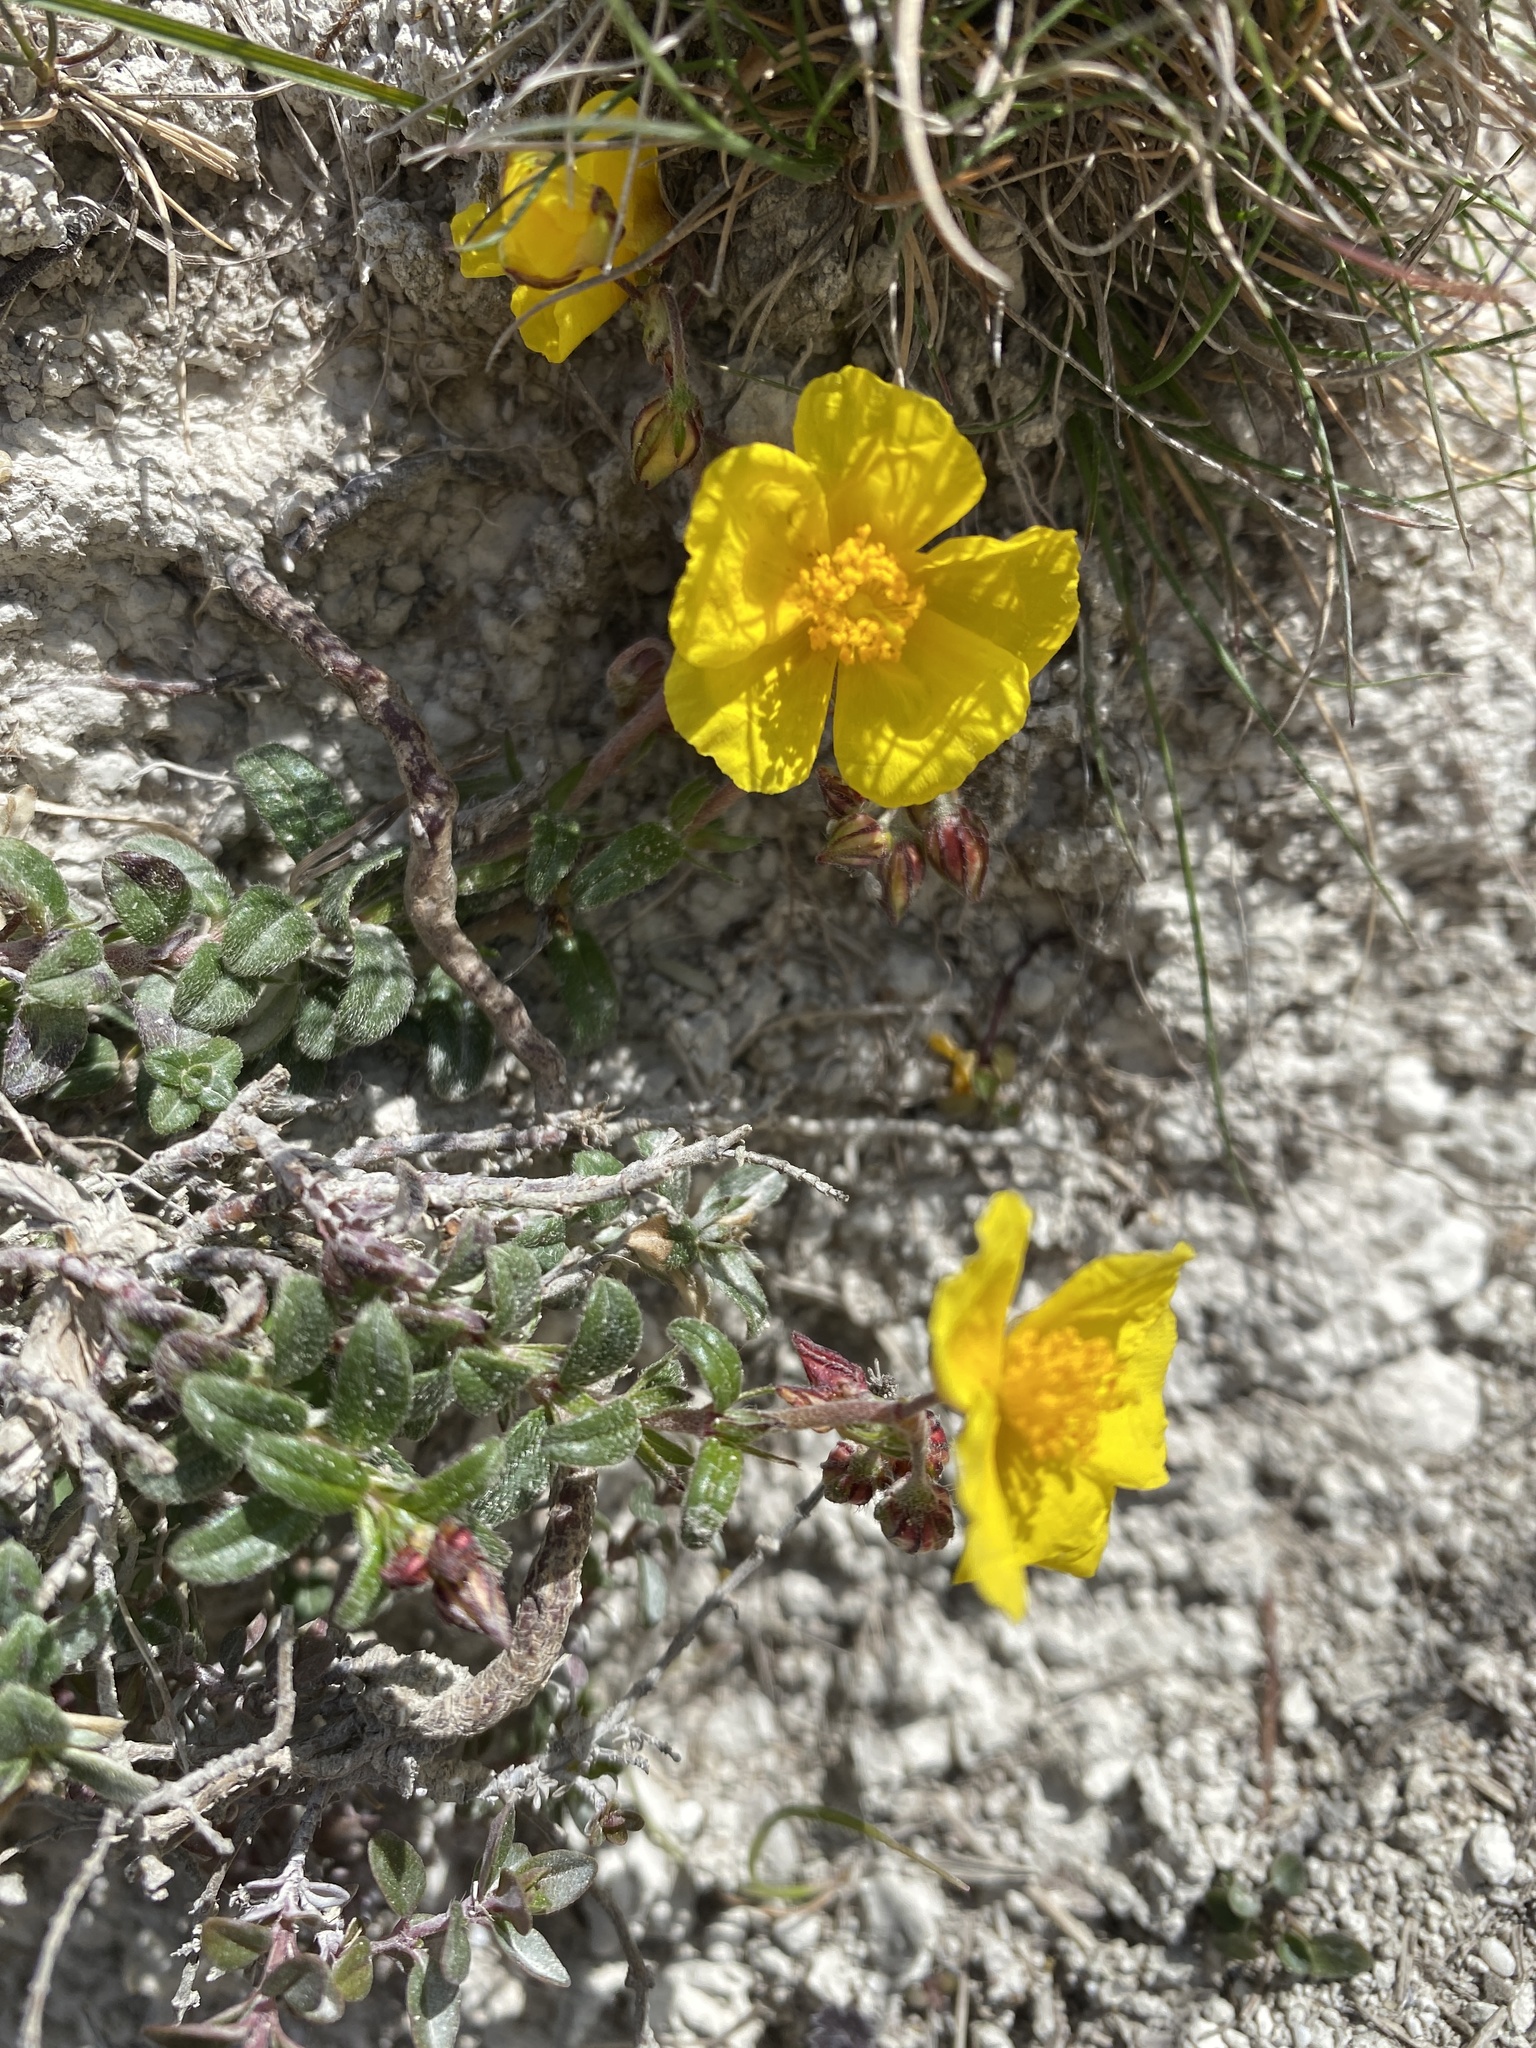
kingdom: Plantae
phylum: Tracheophyta
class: Magnoliopsida
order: Malvales
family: Cistaceae
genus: Helianthemum
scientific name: Helianthemum nummularium
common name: Common rock-rose
